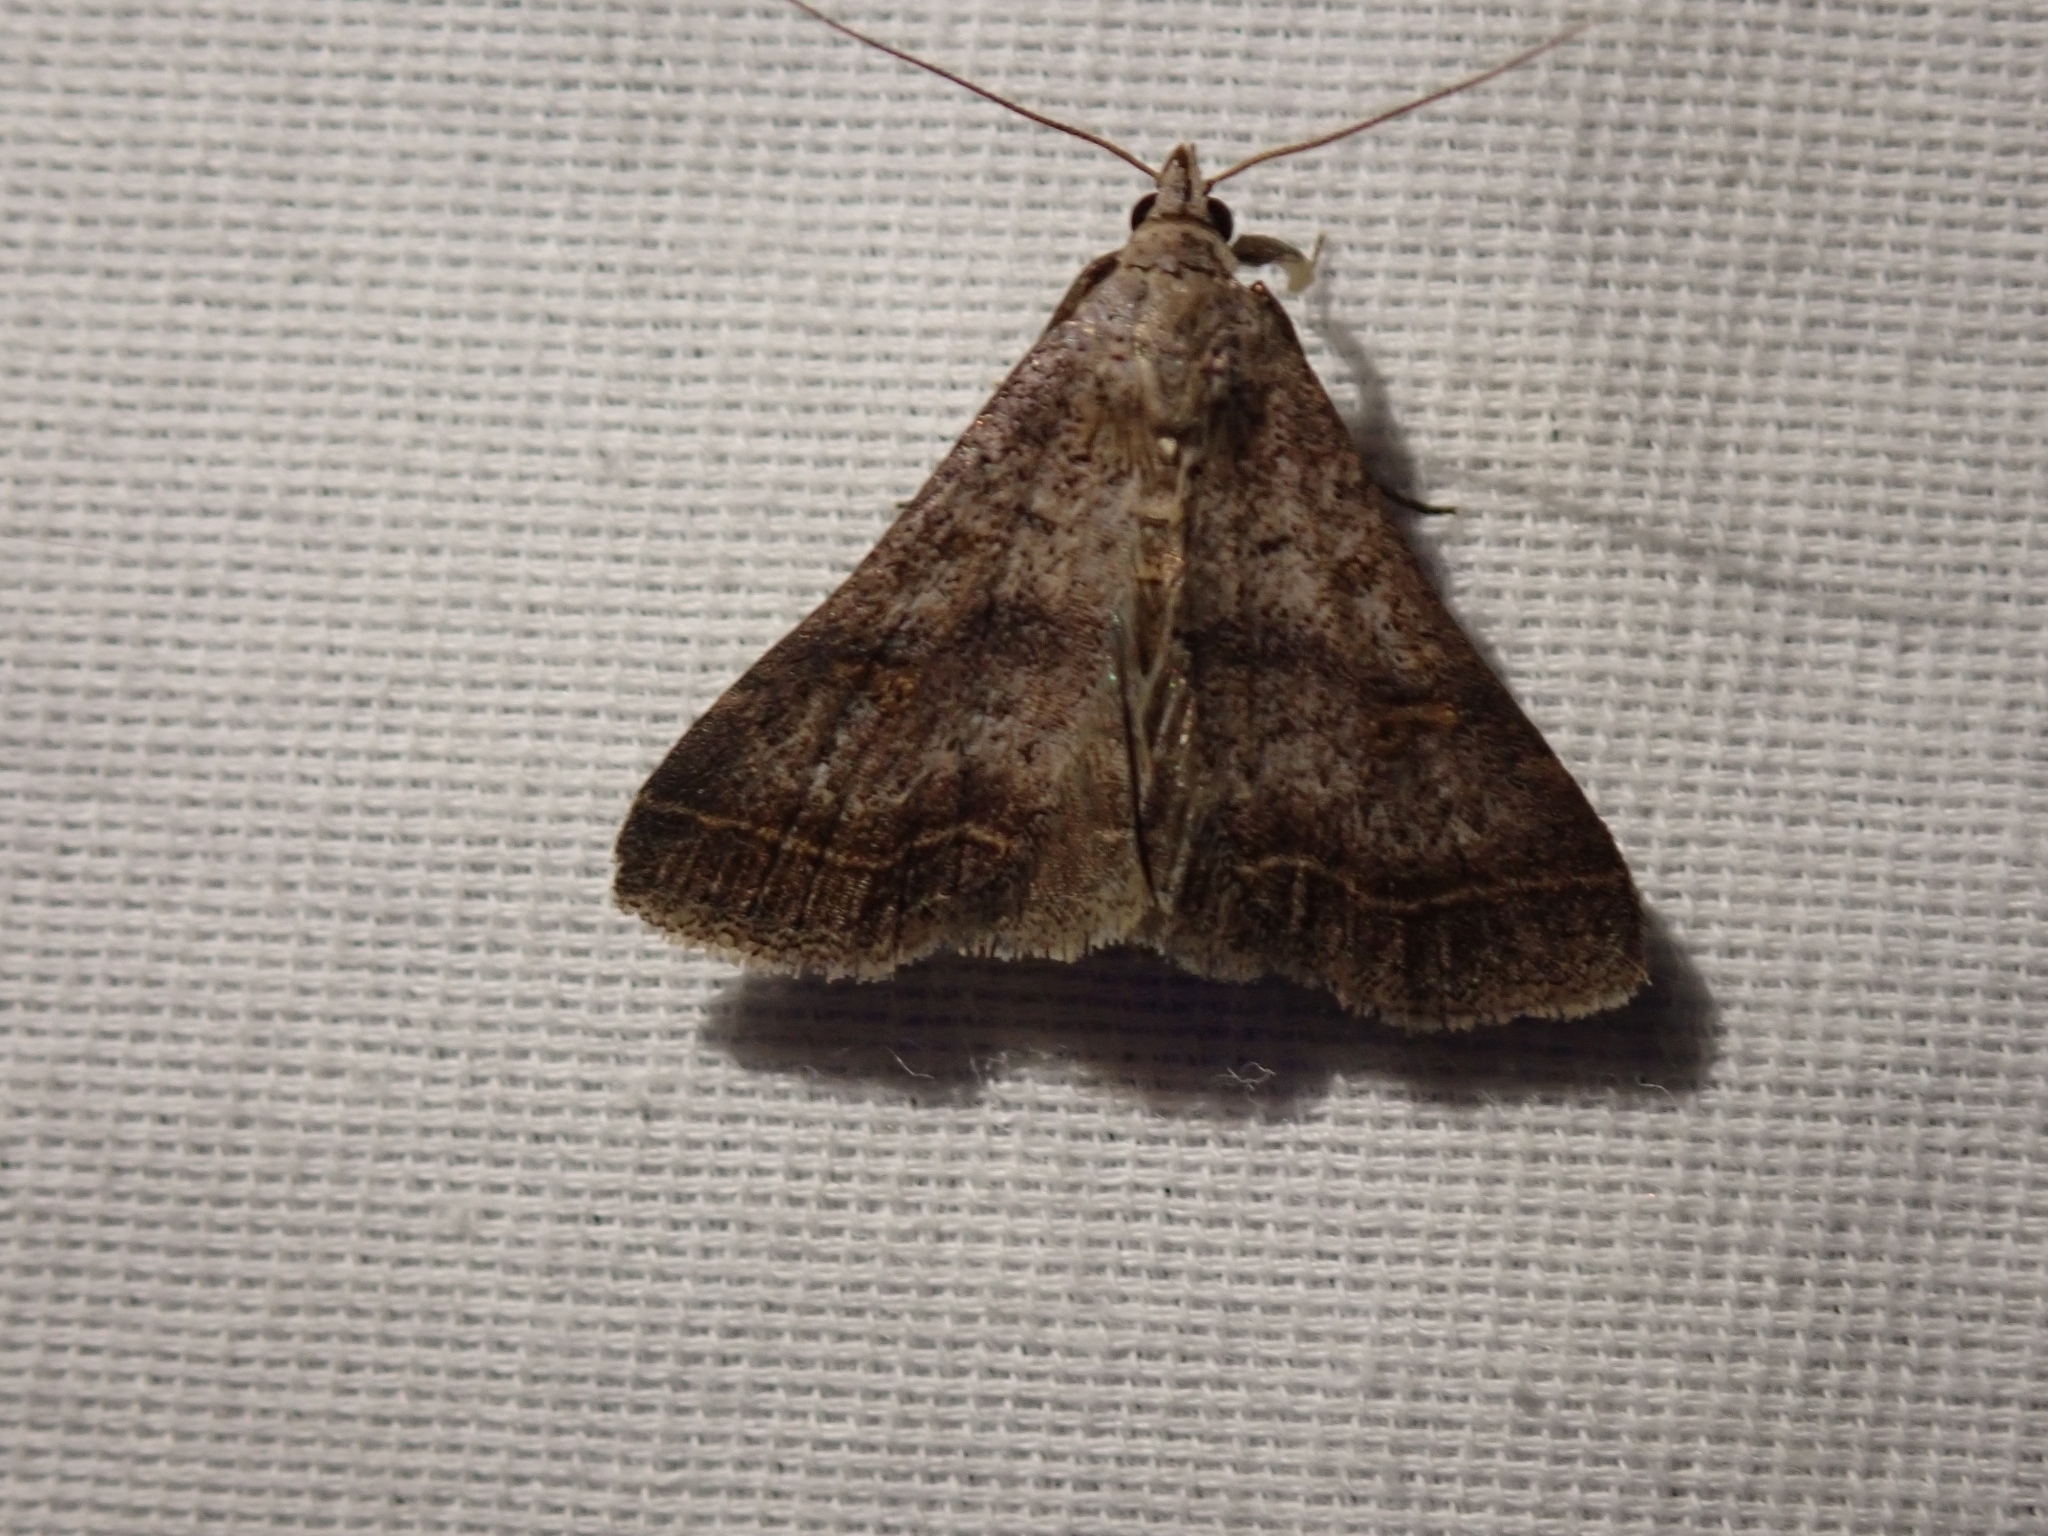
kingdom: Animalia
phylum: Arthropoda
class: Insecta
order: Lepidoptera
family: Erebidae
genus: Bleptina
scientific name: Bleptina caradrinalis
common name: Bent-winged owlet
